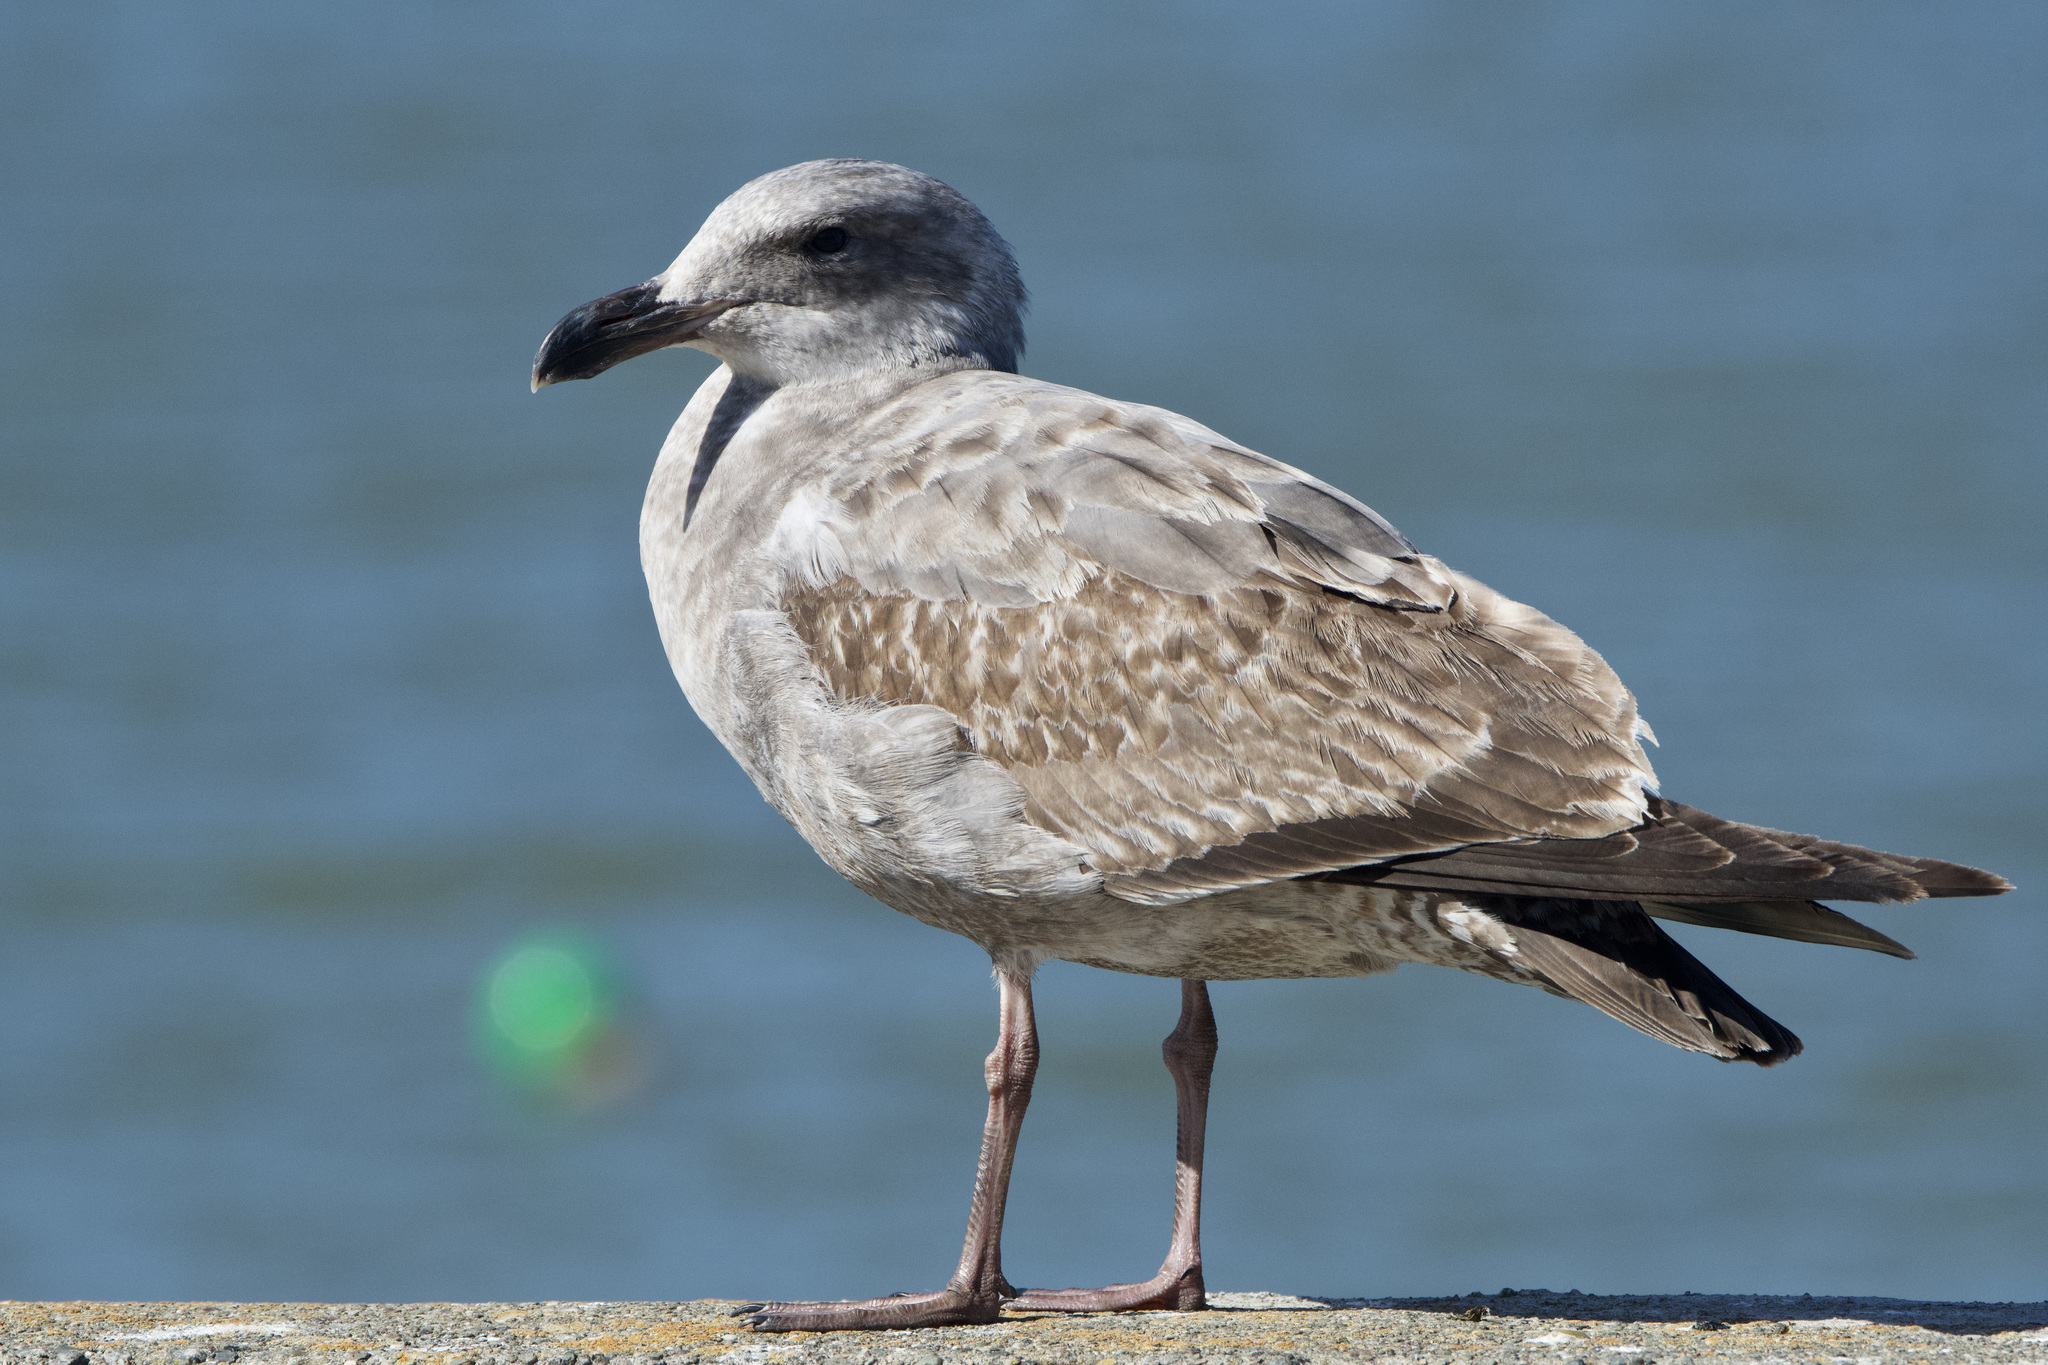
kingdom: Animalia
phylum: Chordata
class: Aves
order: Charadriiformes
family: Laridae
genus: Larus
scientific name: Larus
